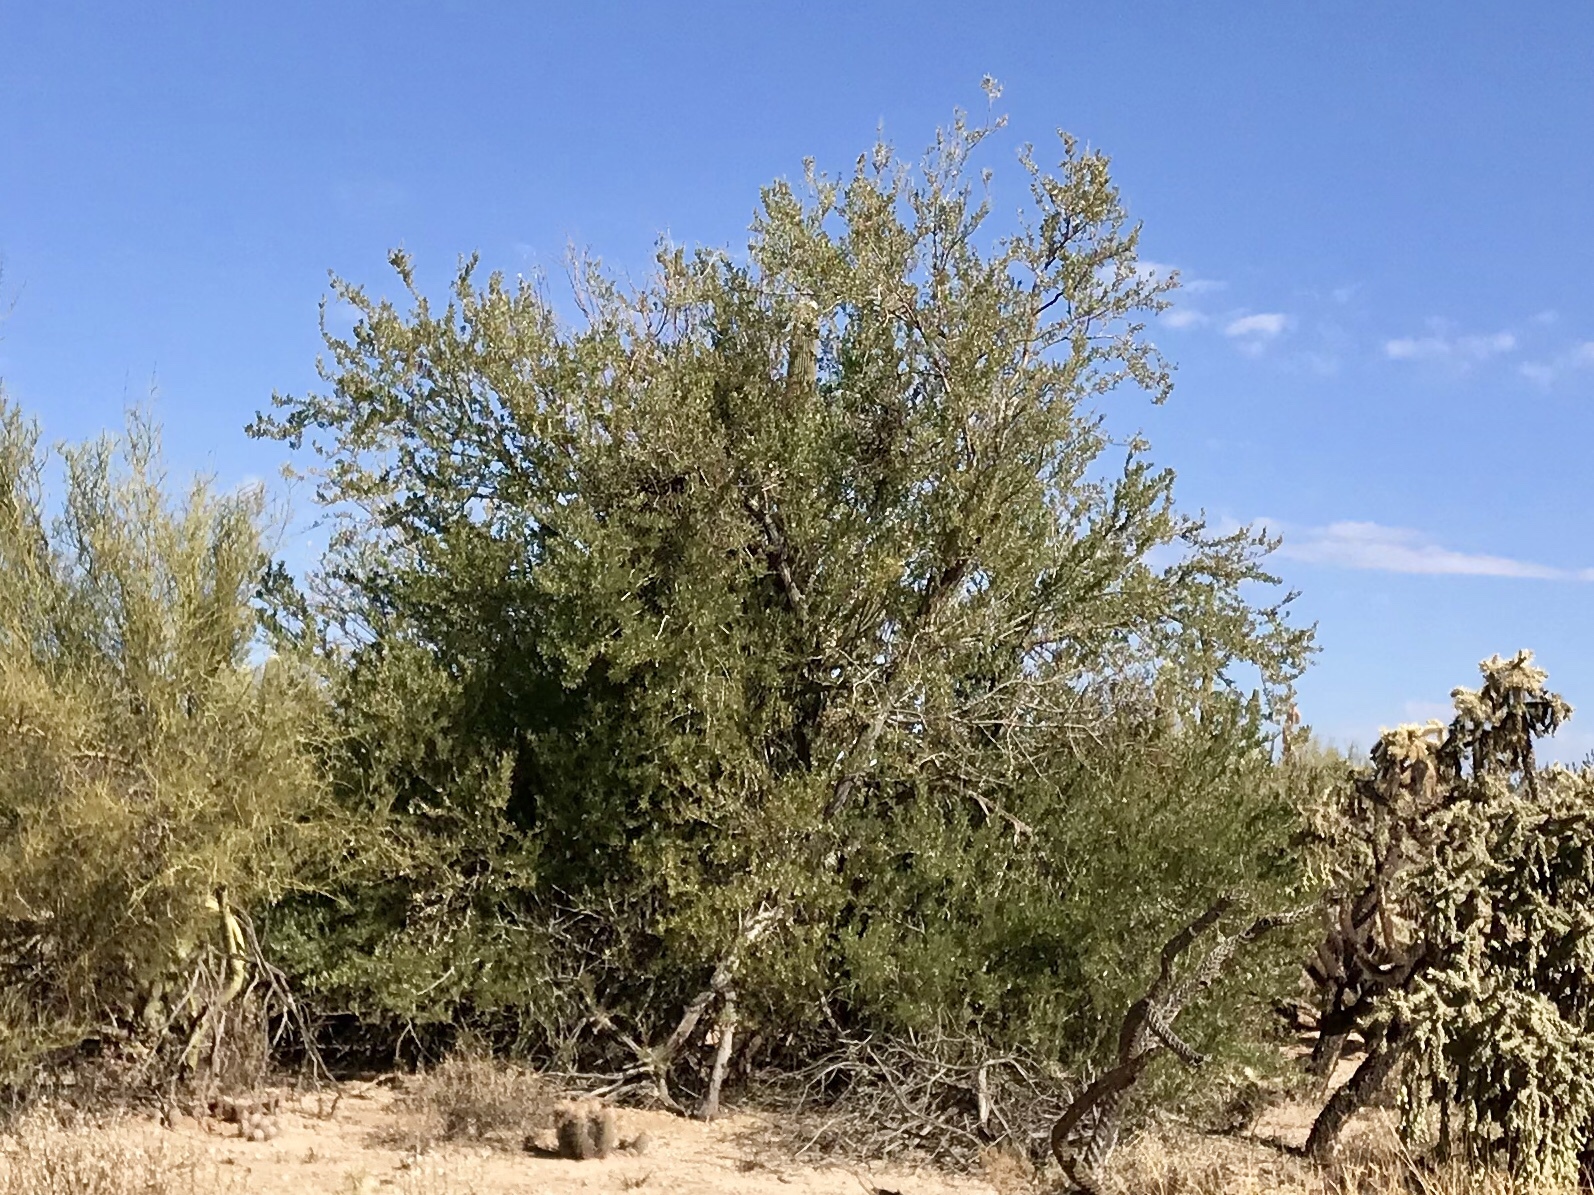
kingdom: Plantae
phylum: Tracheophyta
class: Magnoliopsida
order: Fabales
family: Fabaceae
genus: Olneya
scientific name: Olneya tesota
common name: Desert ironwood
